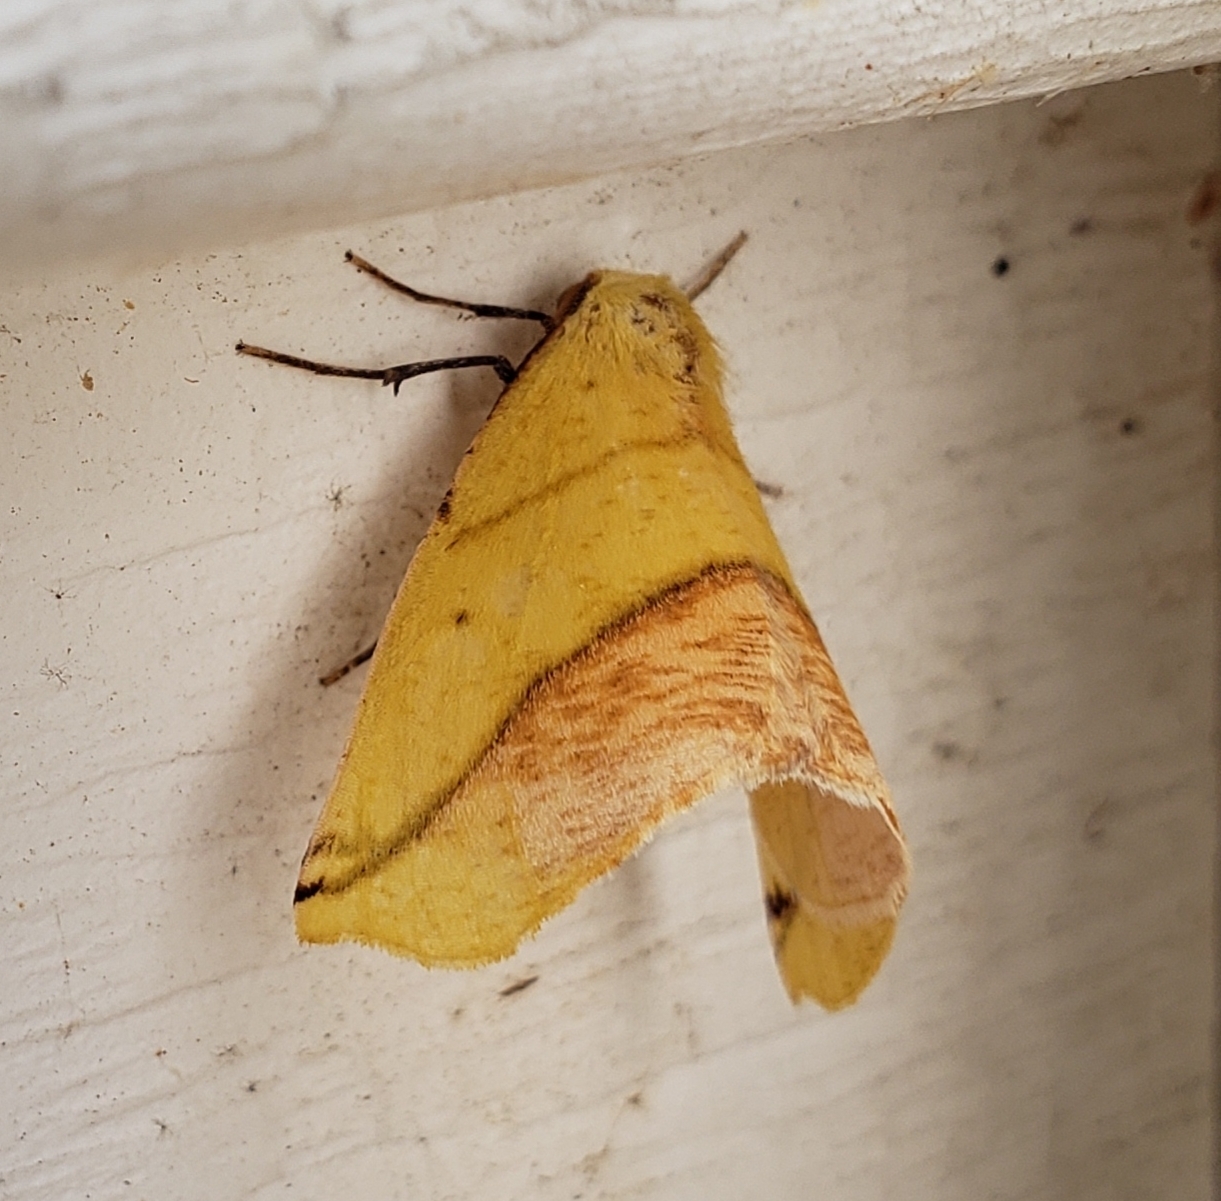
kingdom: Animalia
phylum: Arthropoda
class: Insecta
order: Lepidoptera
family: Geometridae
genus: Sicya
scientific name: Sicya macularia
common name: Sharp-lined yellow
